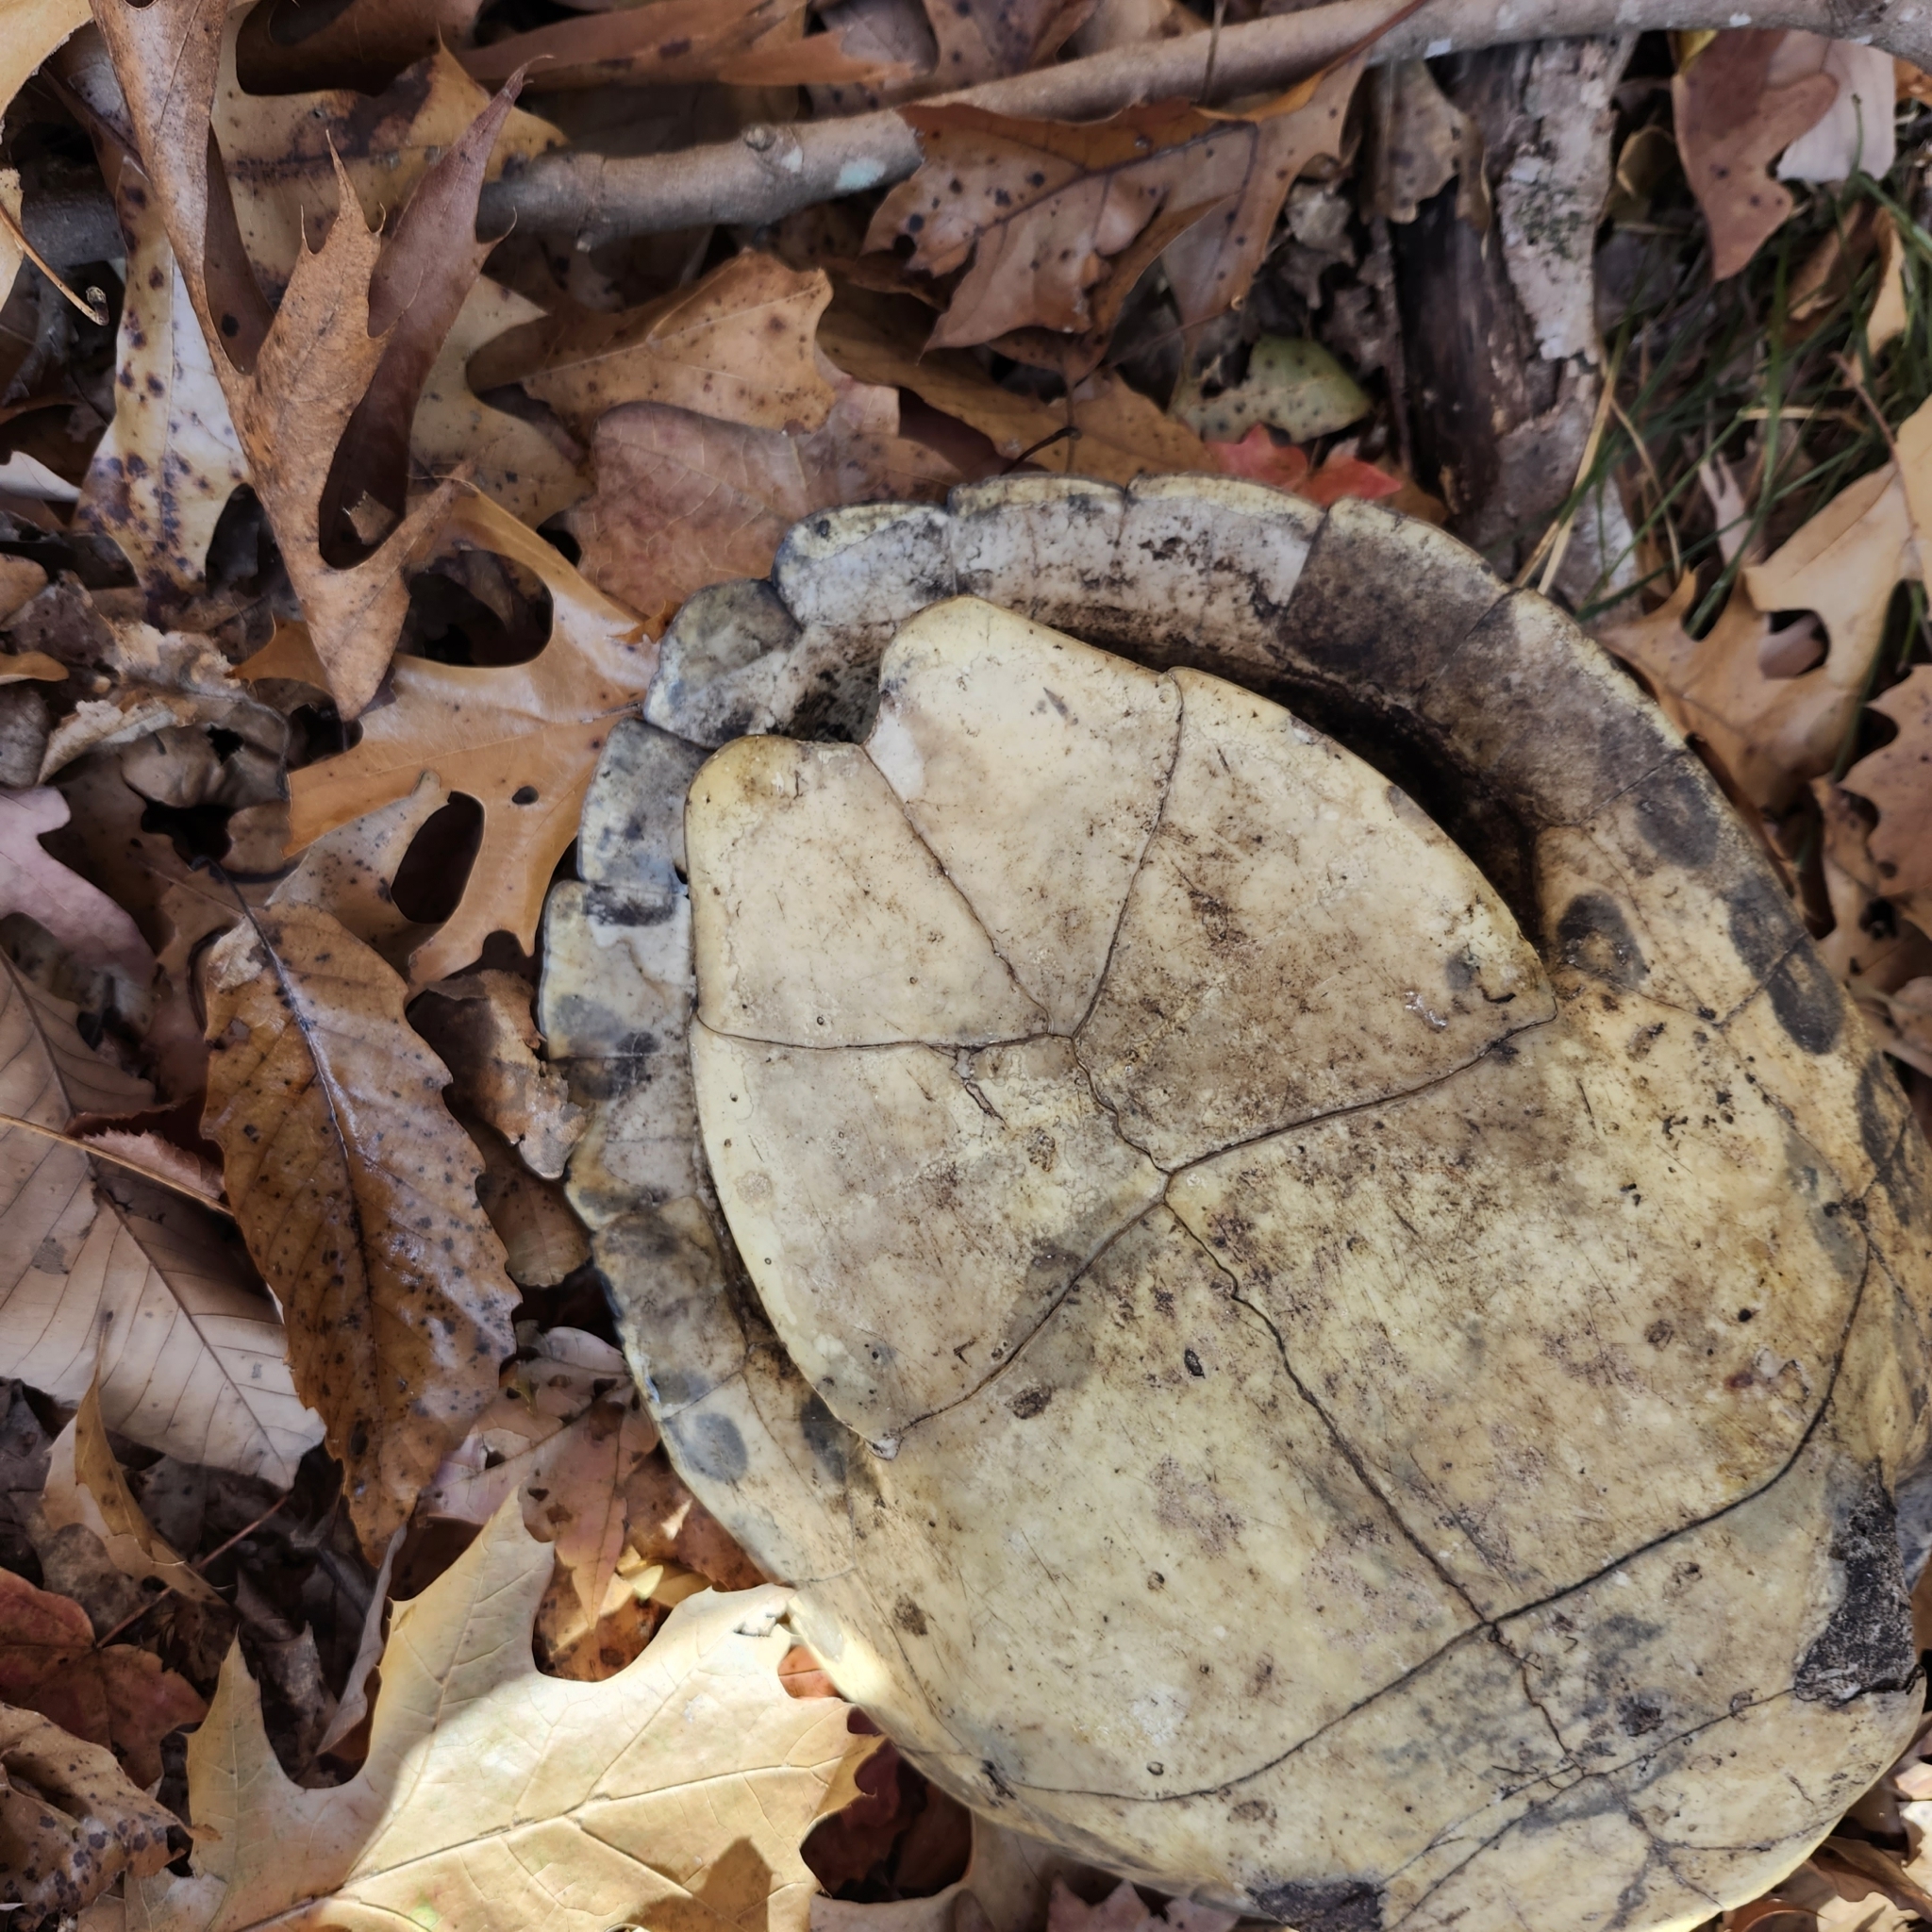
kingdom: Animalia
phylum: Chordata
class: Testudines
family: Emydidae
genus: Pseudemys
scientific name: Pseudemys concinna
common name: Eastern river cooter
